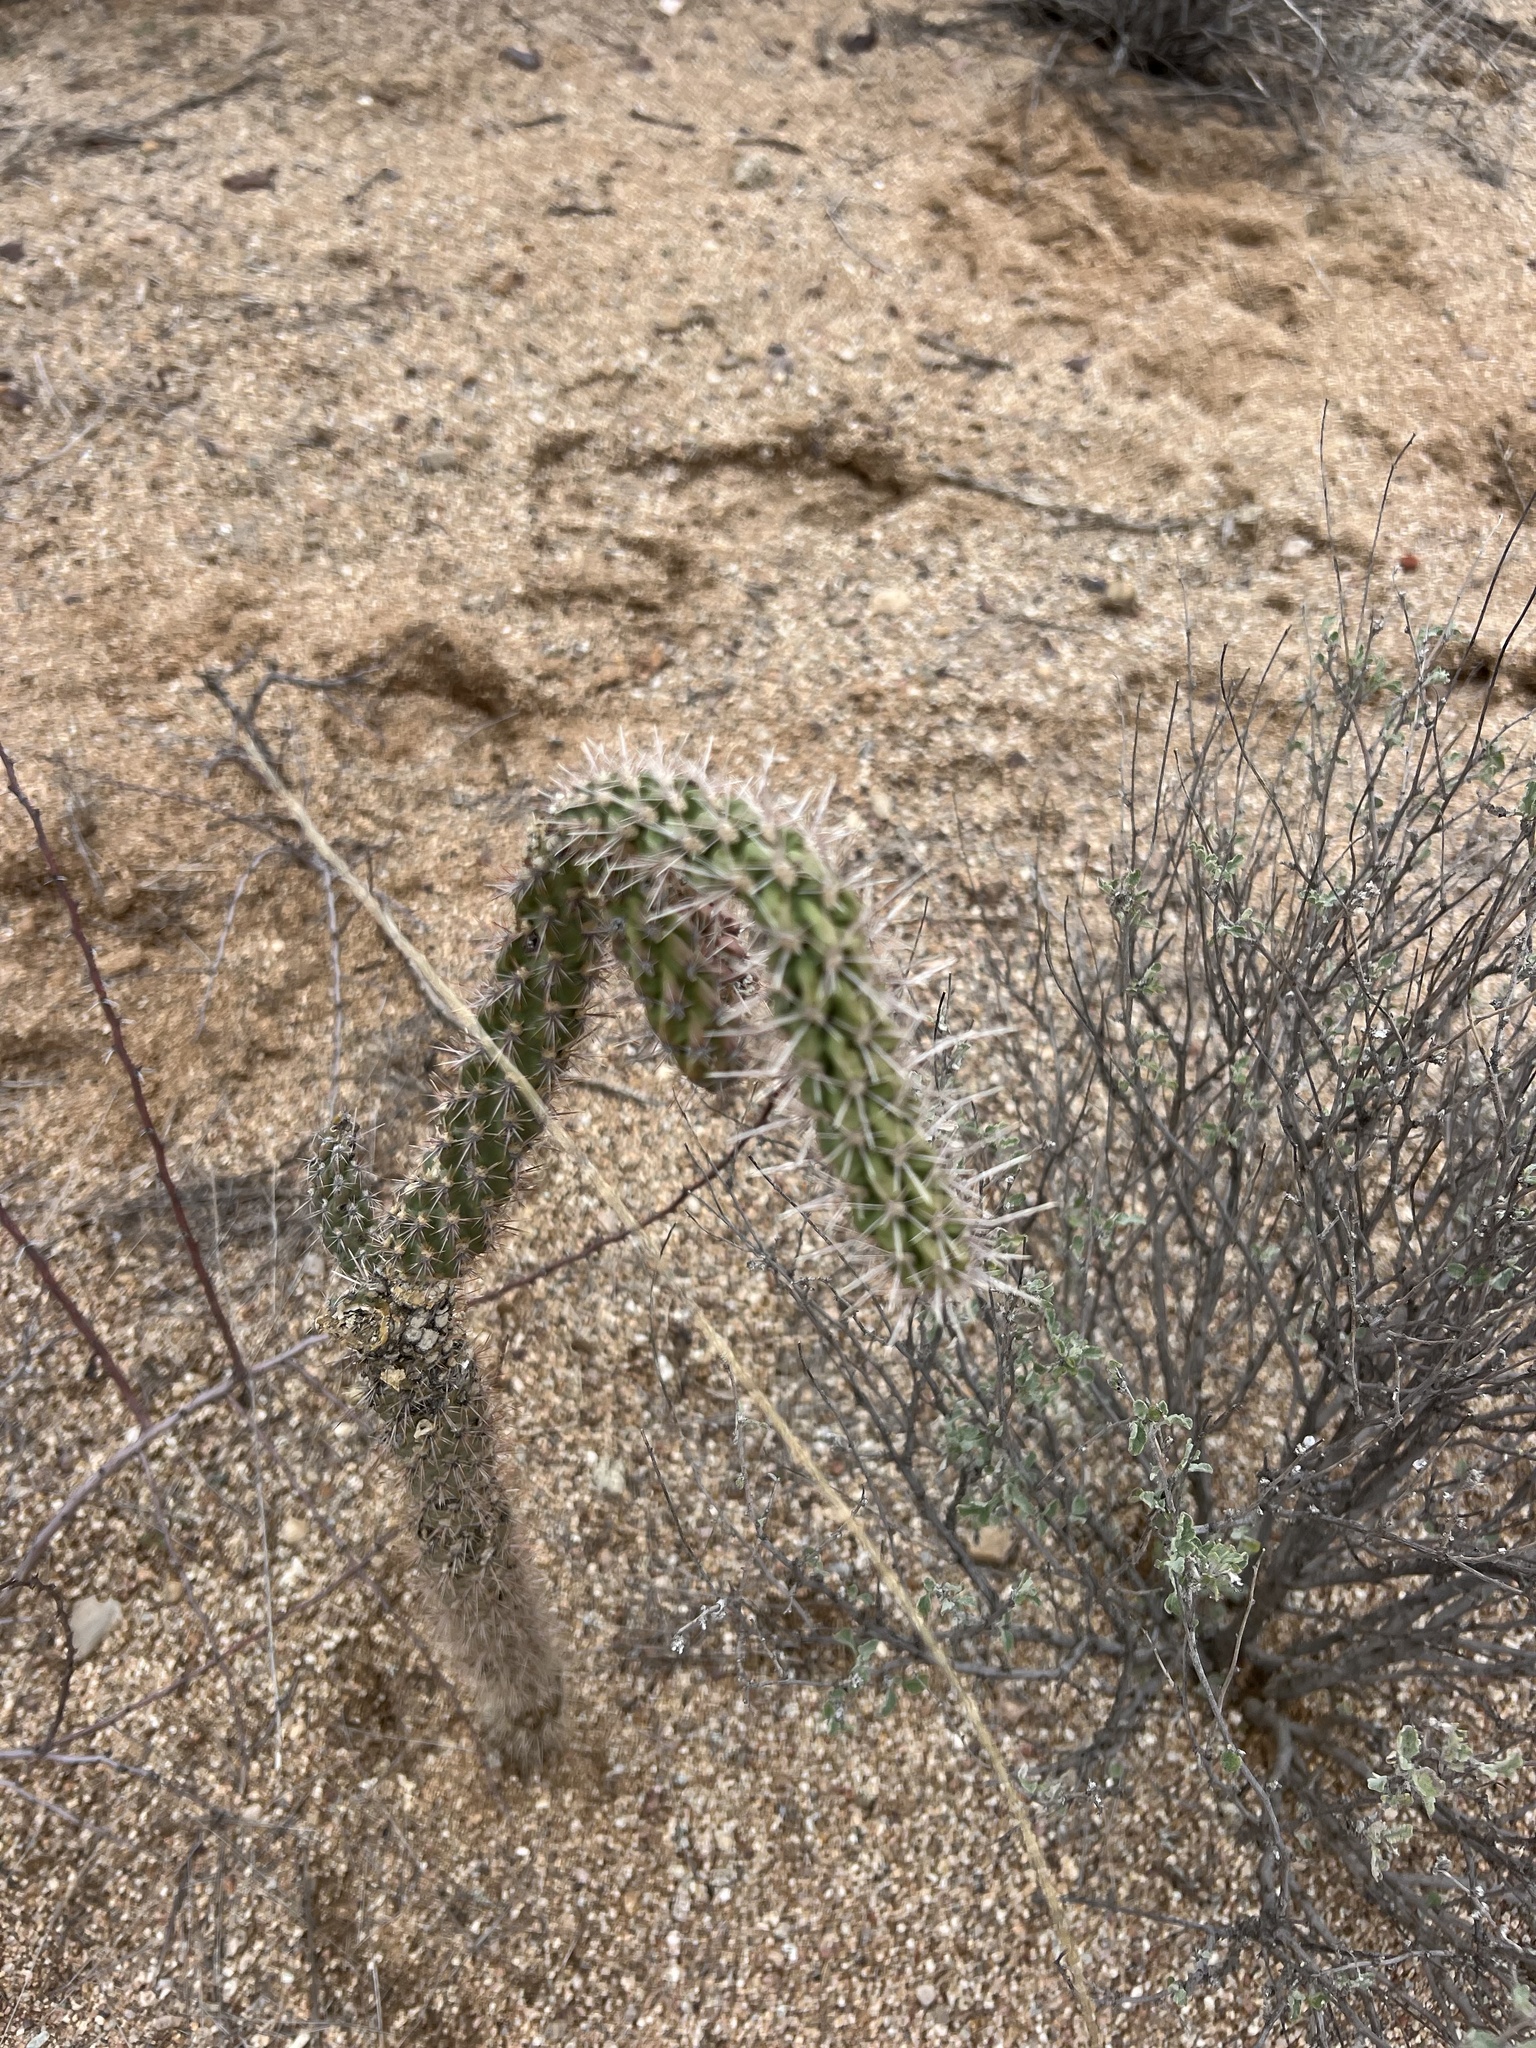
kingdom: Plantae
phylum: Tracheophyta
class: Magnoliopsida
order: Caryophyllales
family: Cactaceae
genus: Cylindropuntia
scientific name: Cylindropuntia imbricata
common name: Candelabrum cactus
